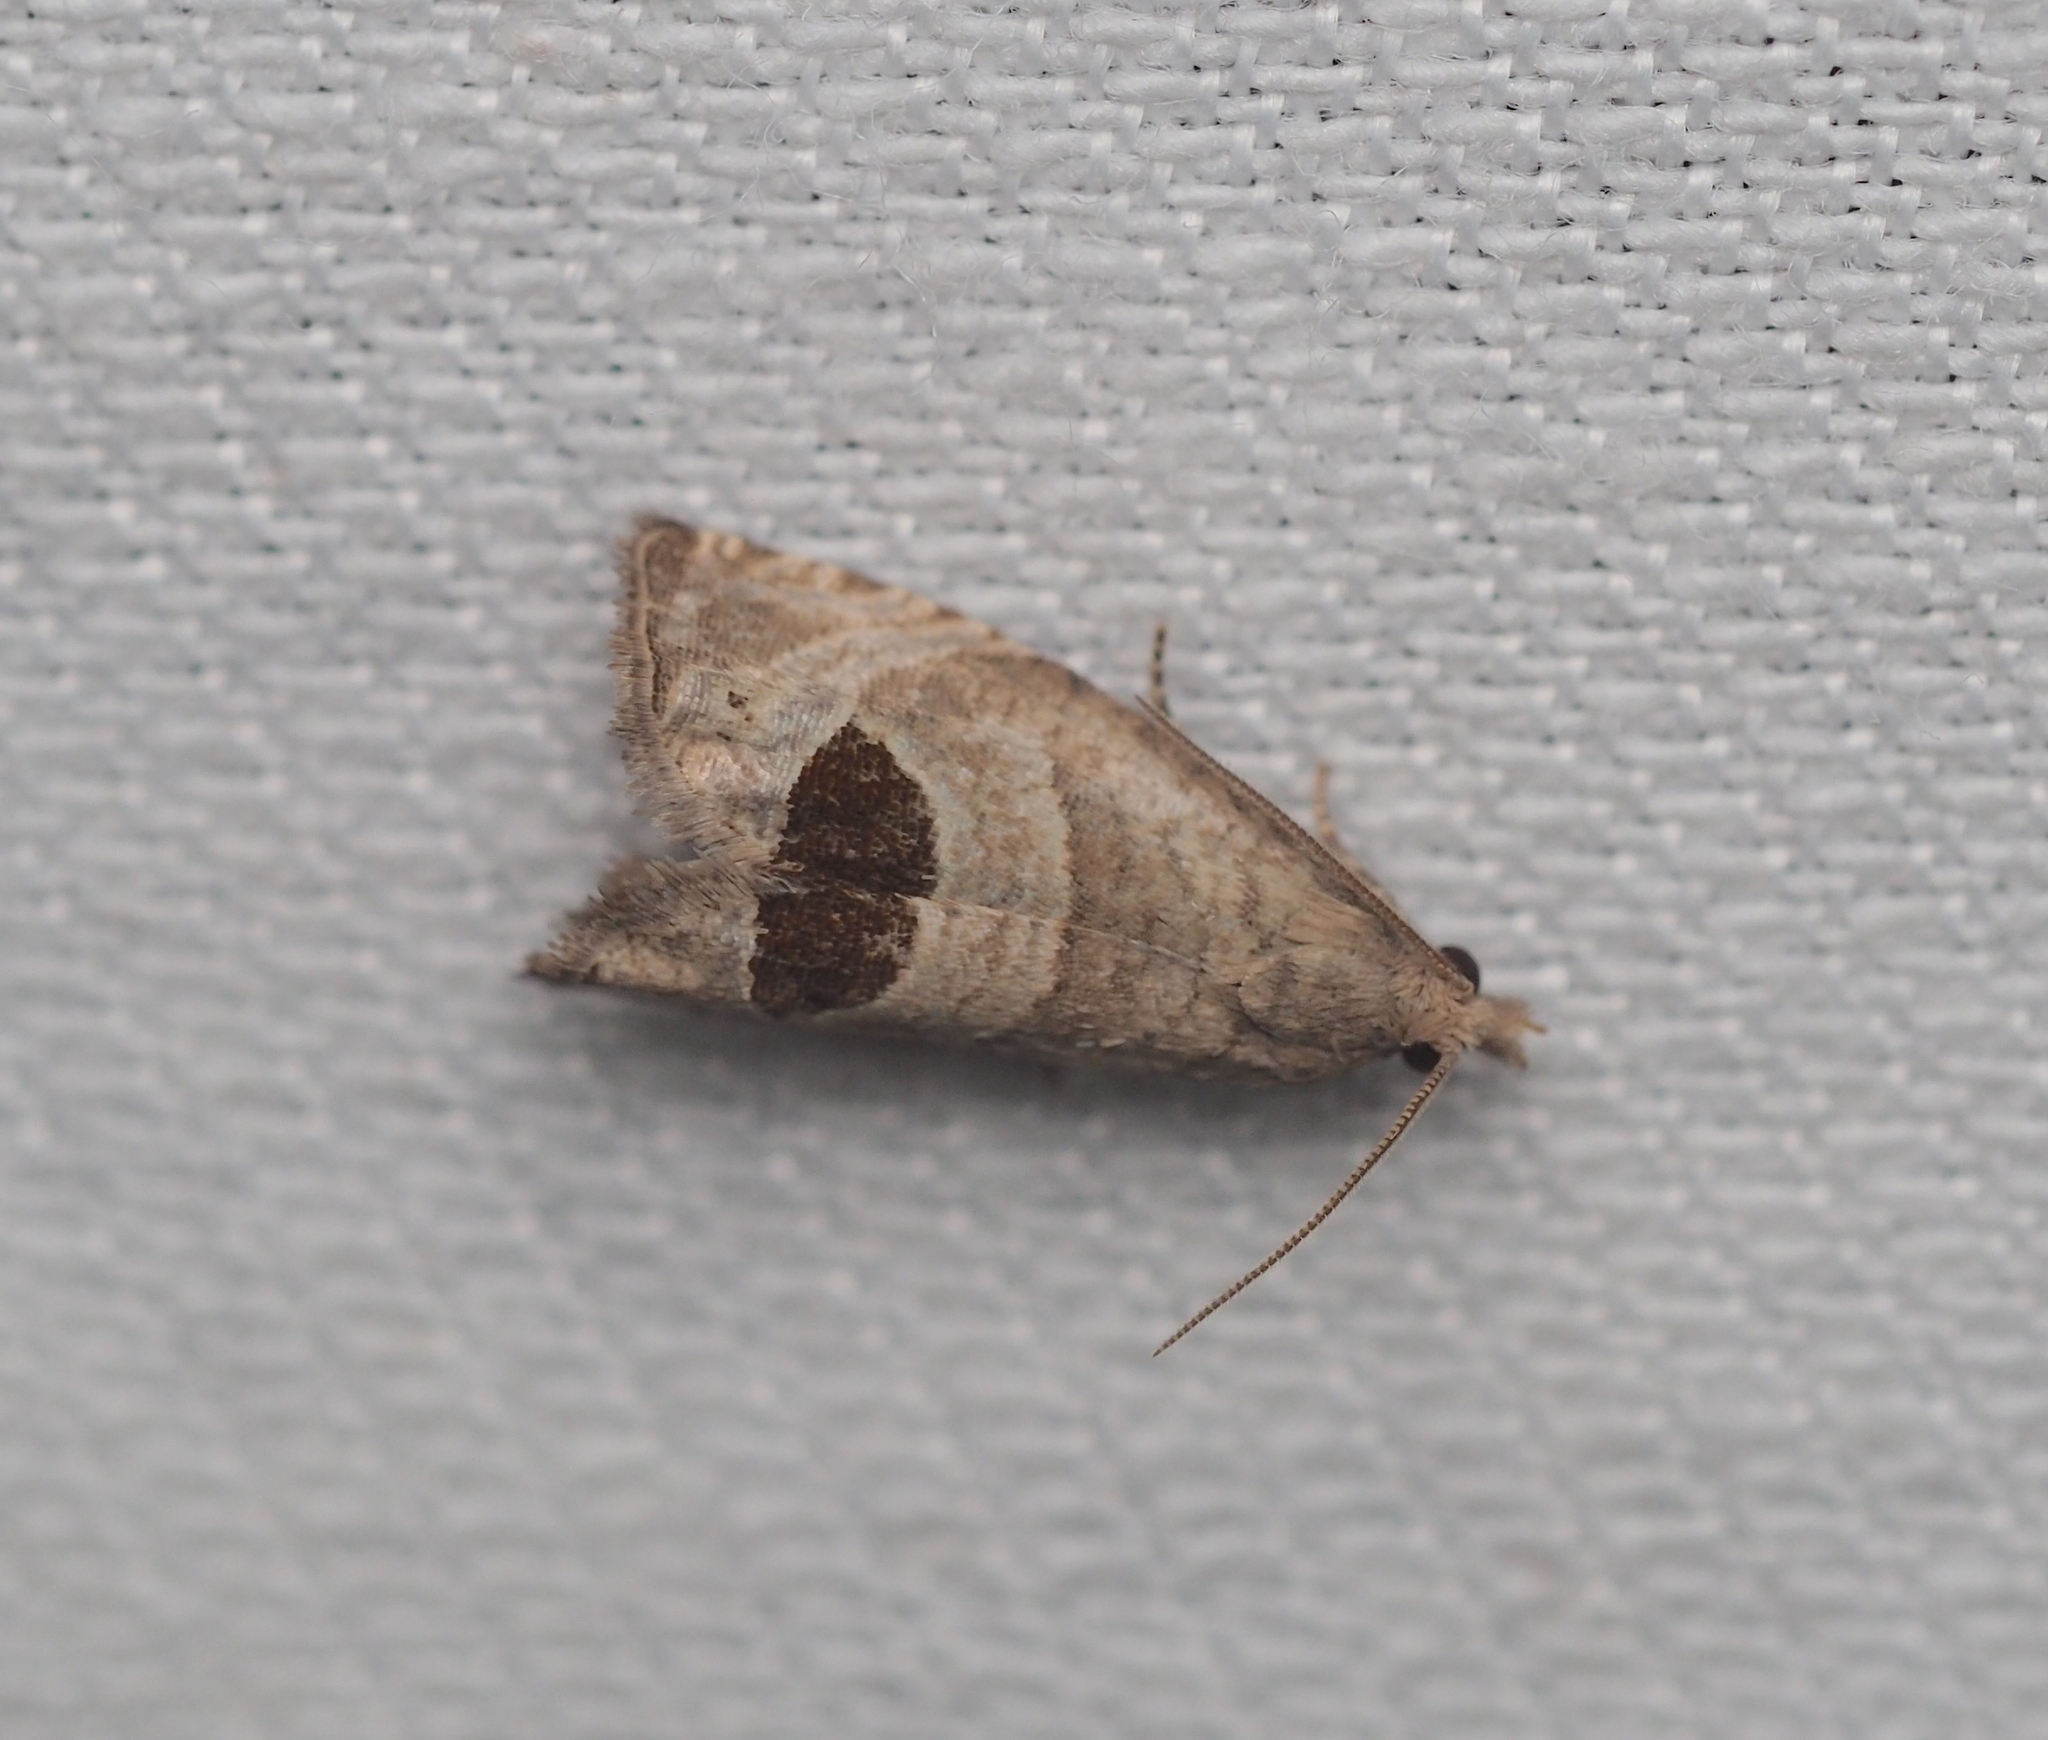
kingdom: Animalia
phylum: Arthropoda
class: Insecta
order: Lepidoptera
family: Tortricidae
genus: Notocelia
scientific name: Notocelia uddmanniana
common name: Bramble shoot moth
